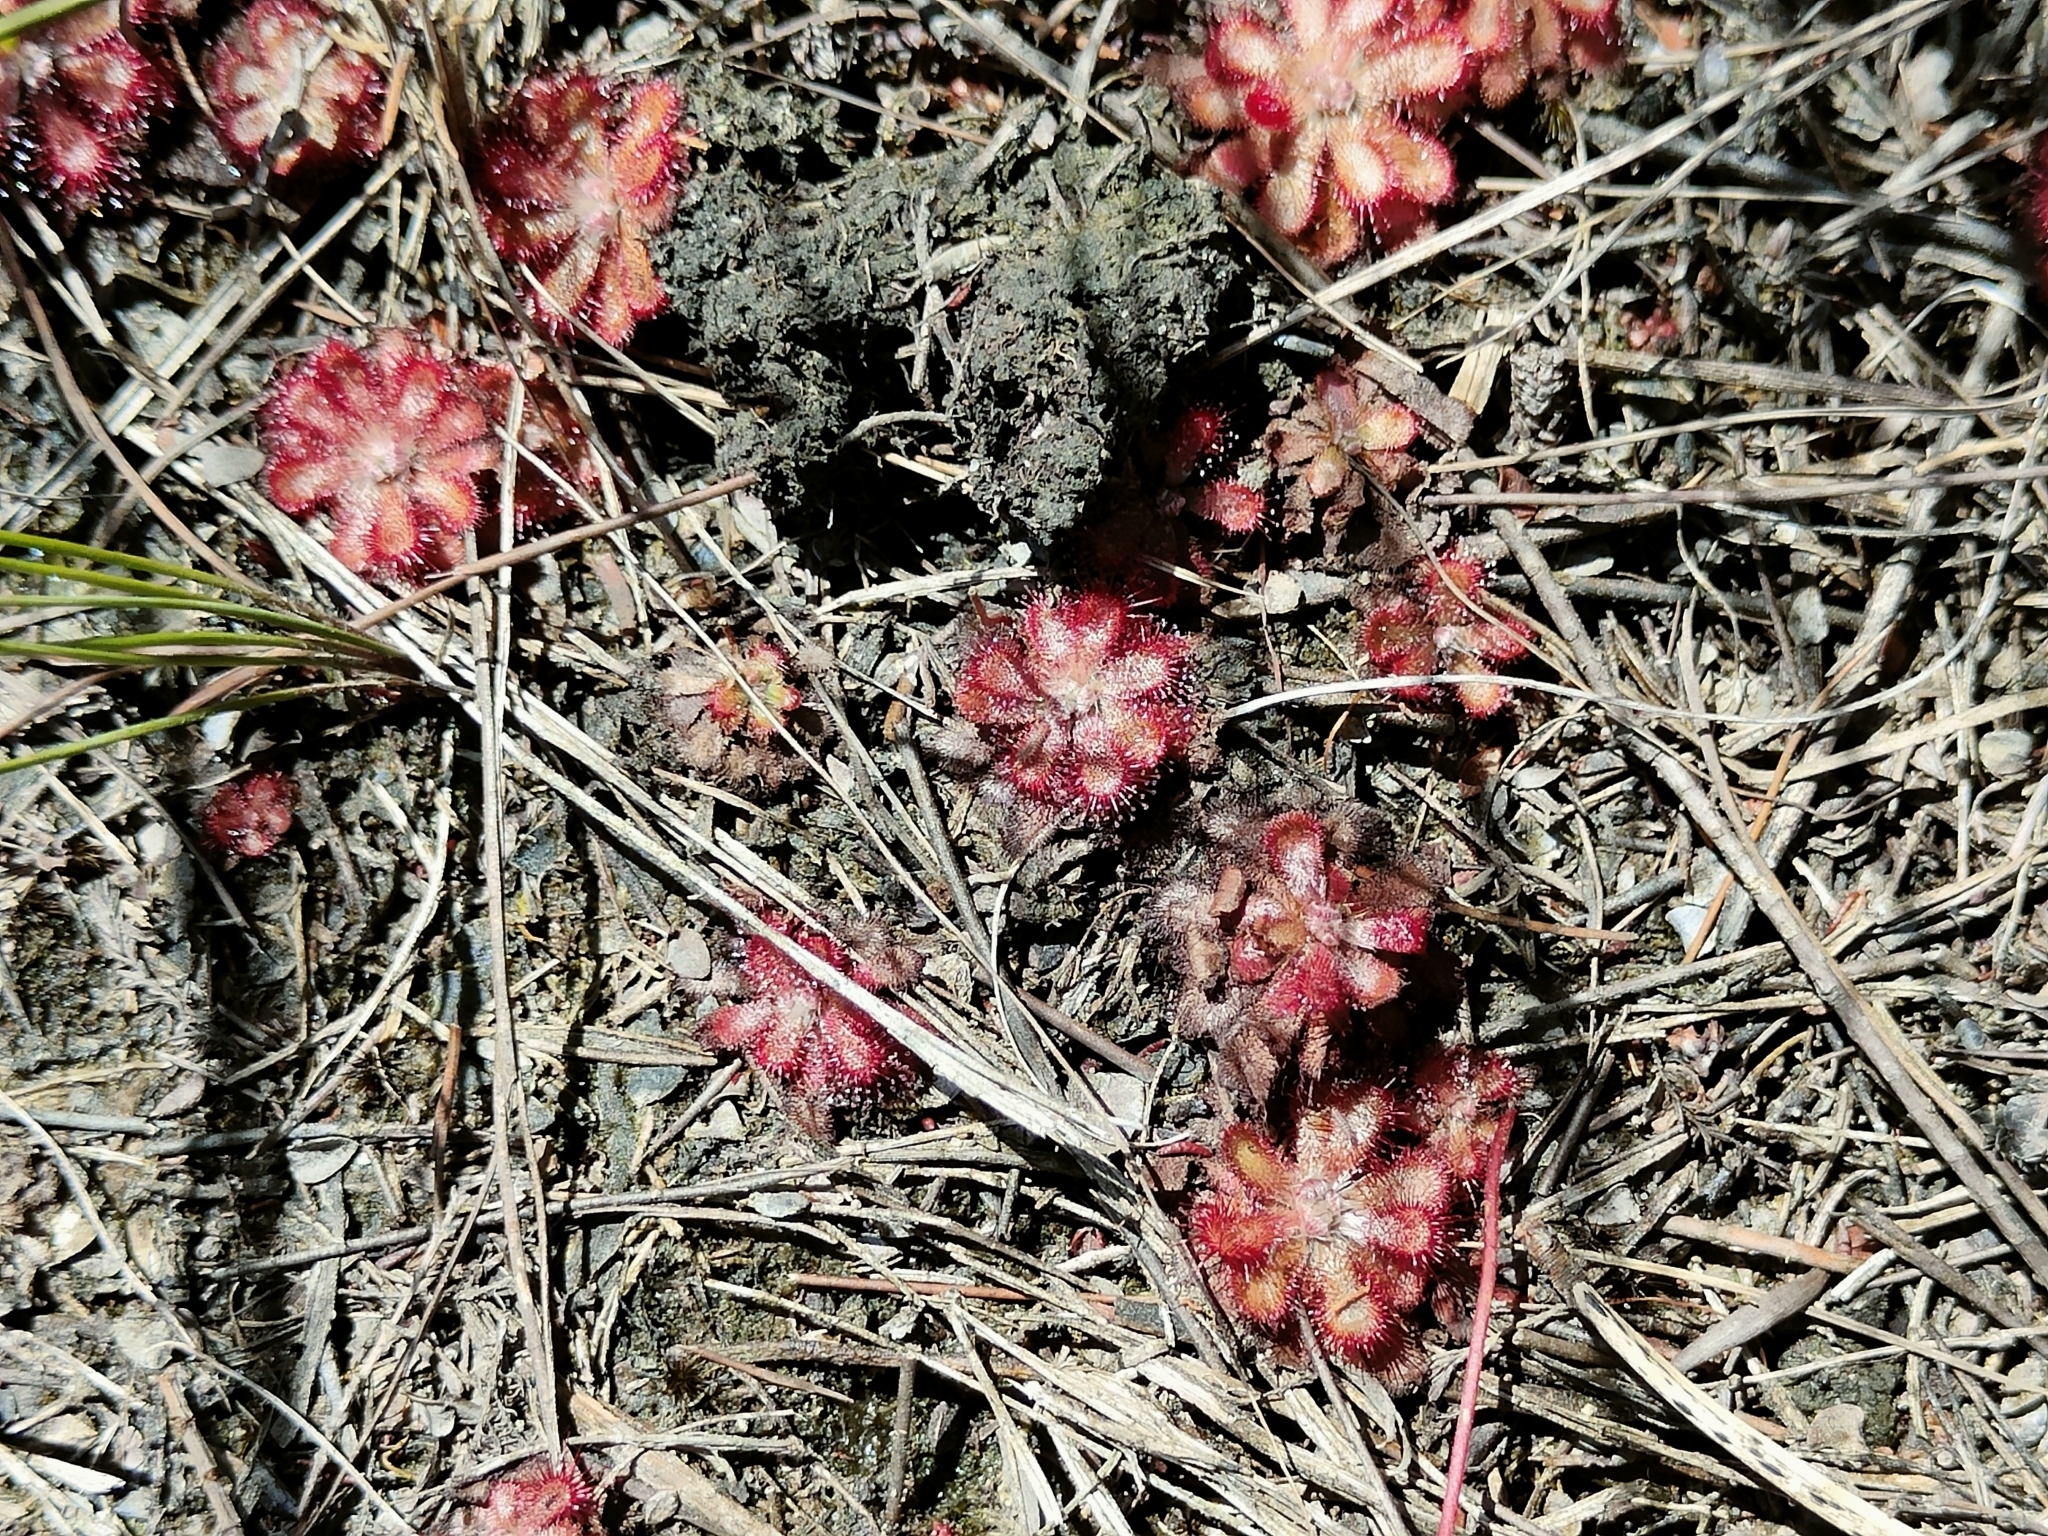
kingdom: Plantae
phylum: Tracheophyta
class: Magnoliopsida
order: Caryophyllales
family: Droseraceae
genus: Drosera
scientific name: Drosera aliciae
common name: Alice sundew
